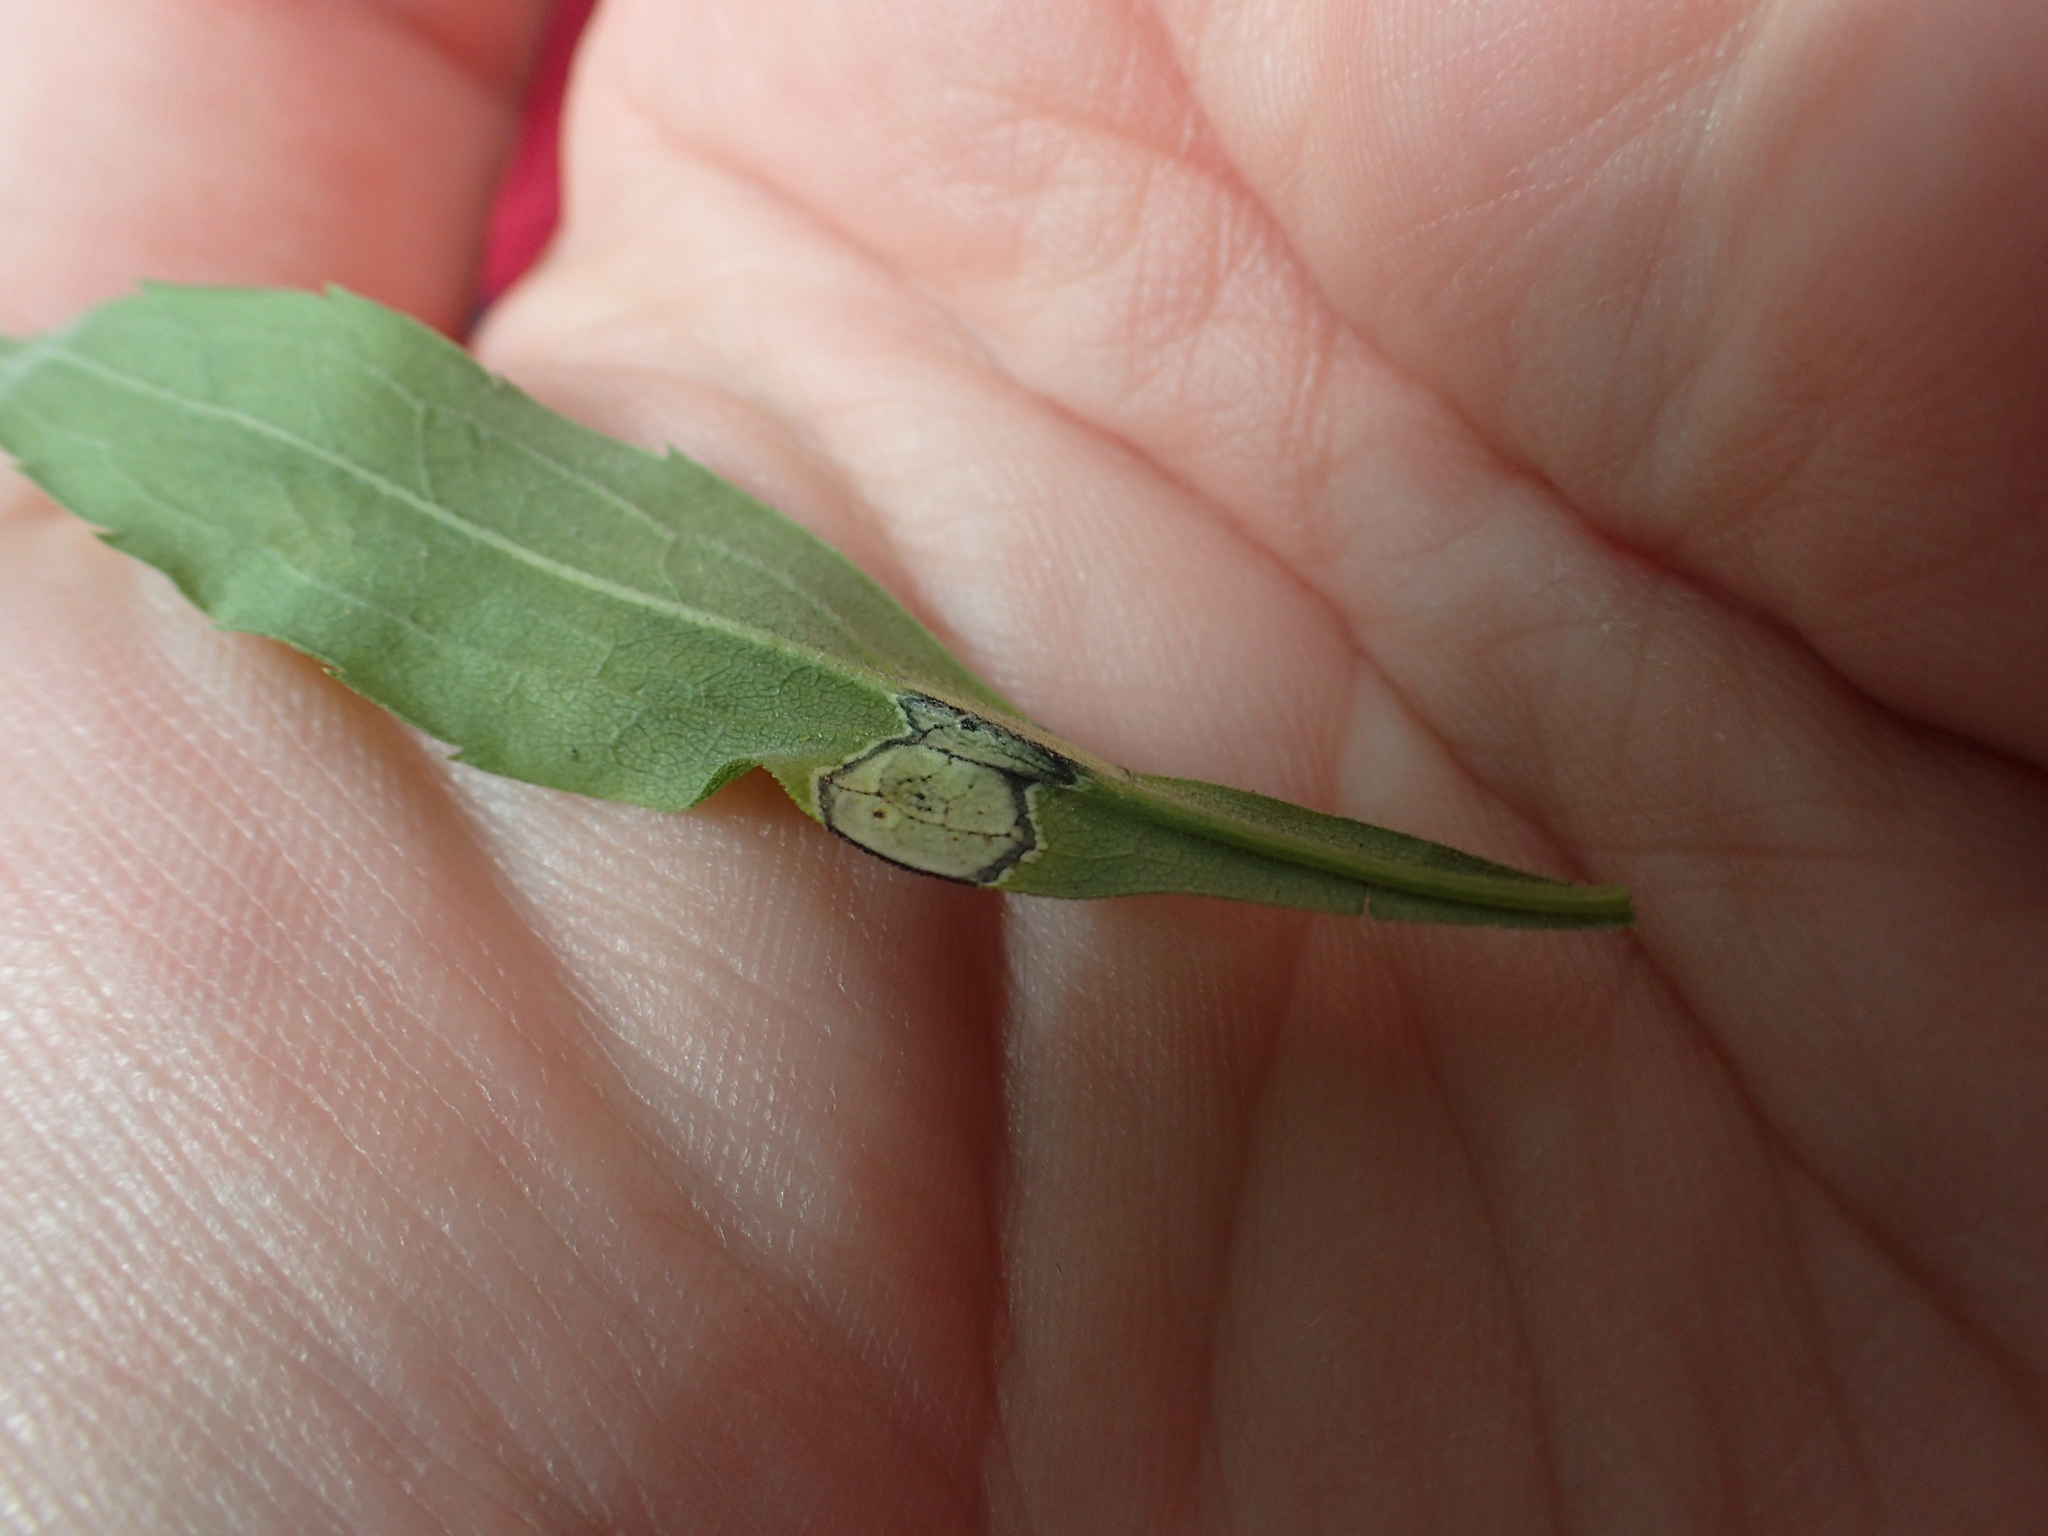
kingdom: Animalia
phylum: Arthropoda
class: Insecta
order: Diptera
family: Cecidomyiidae
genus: Asteromyia
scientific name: Asteromyia carbonifera
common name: Carbonifera goldenrod gall midge
